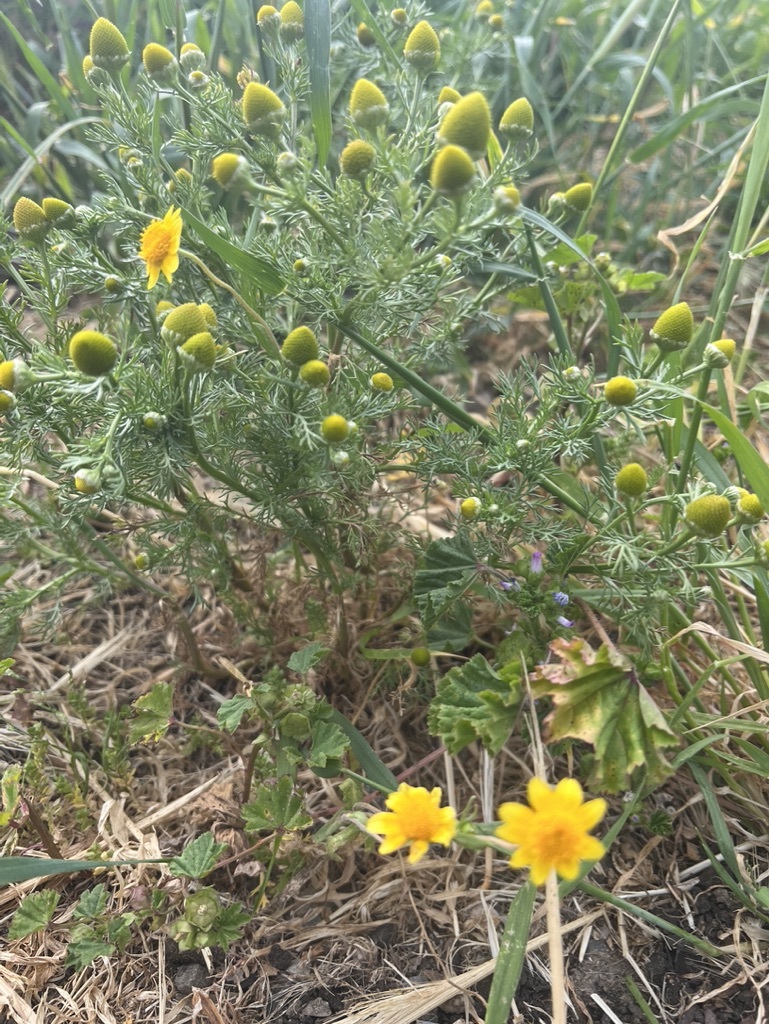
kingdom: Plantae
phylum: Tracheophyta
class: Magnoliopsida
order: Asterales
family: Asteraceae
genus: Matricaria
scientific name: Matricaria discoidea
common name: Disc mayweed
